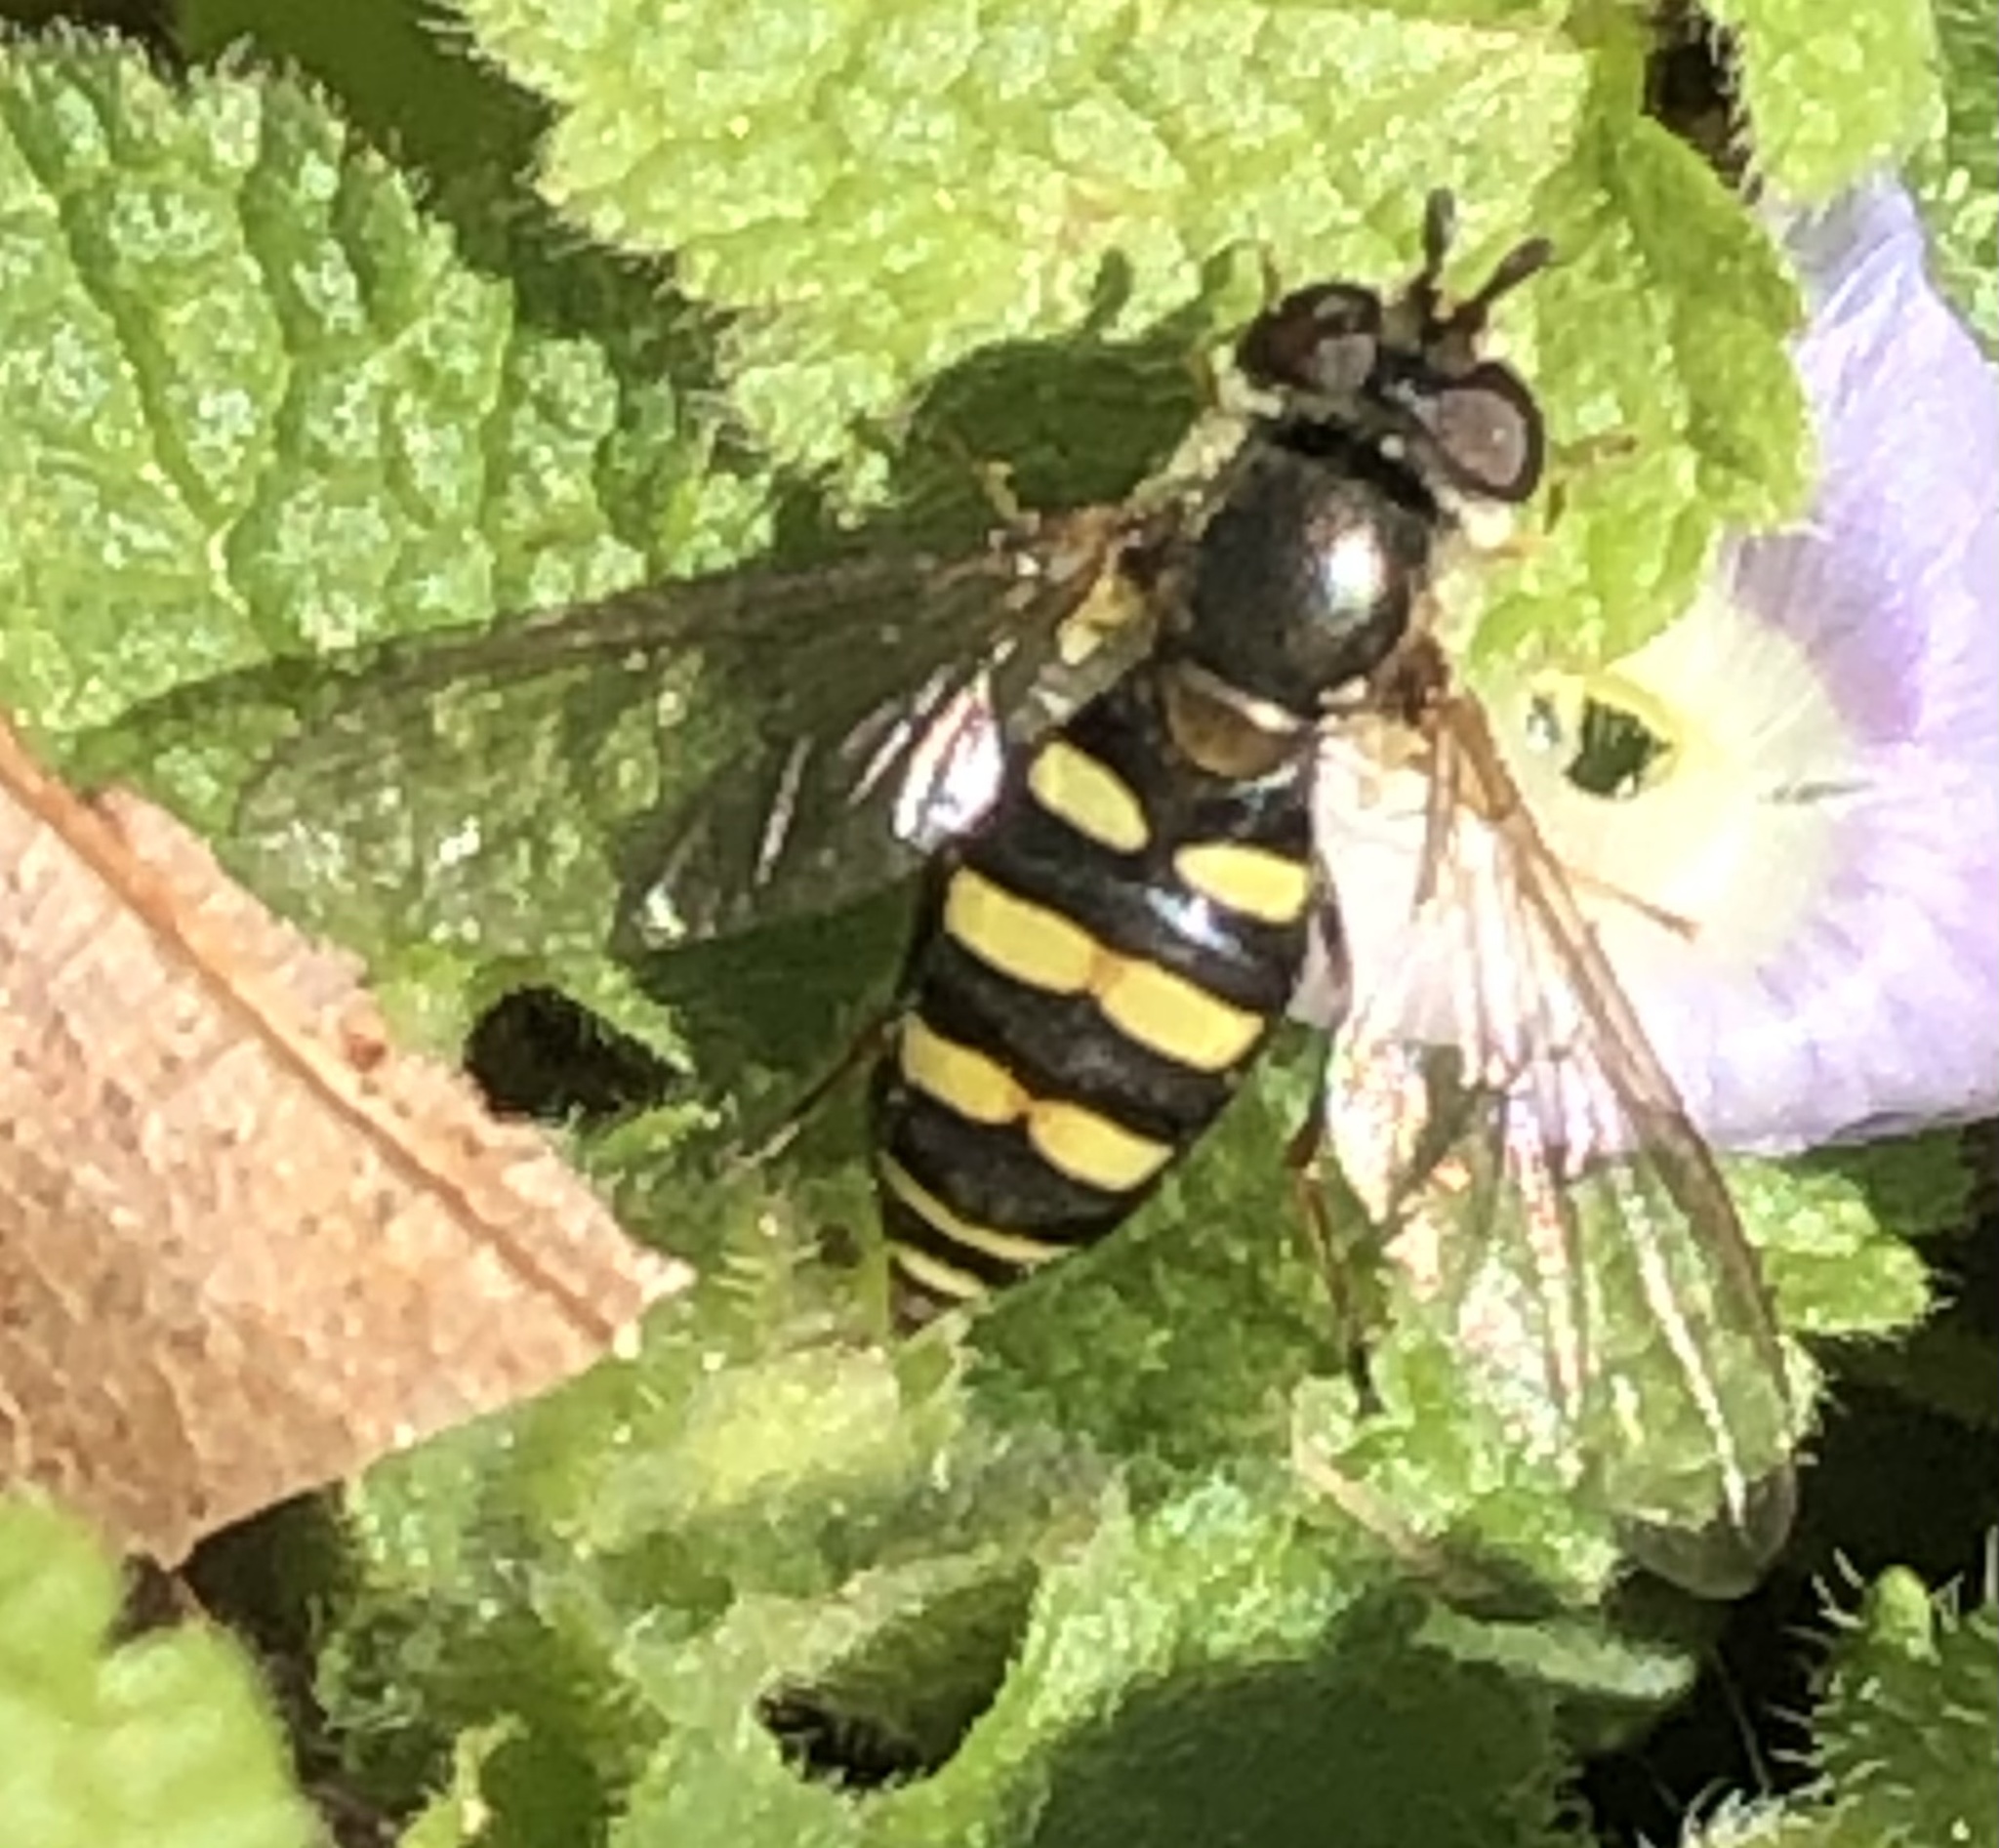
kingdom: Animalia
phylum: Arthropoda
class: Insecta
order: Diptera
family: Syrphidae
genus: Eupeodes
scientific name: Eupeodes
